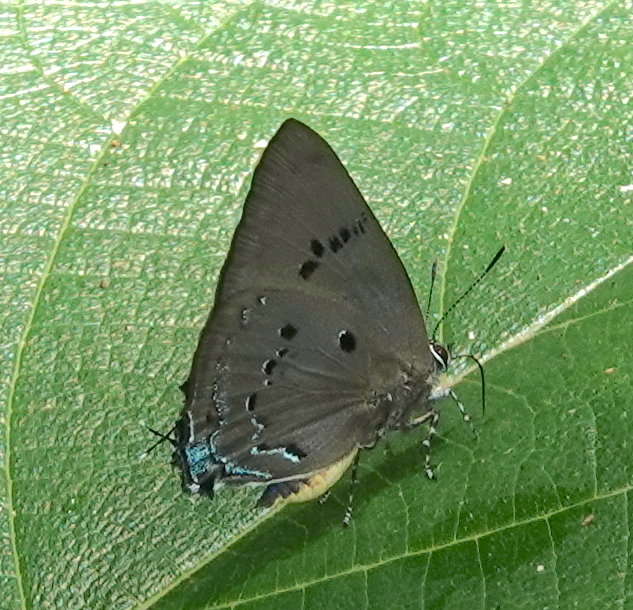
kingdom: Animalia
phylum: Arthropoda
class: Insecta
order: Lepidoptera
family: Lycaenidae
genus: Parrhasius
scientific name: Parrhasius polibetes
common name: Black-spot hairstreak
